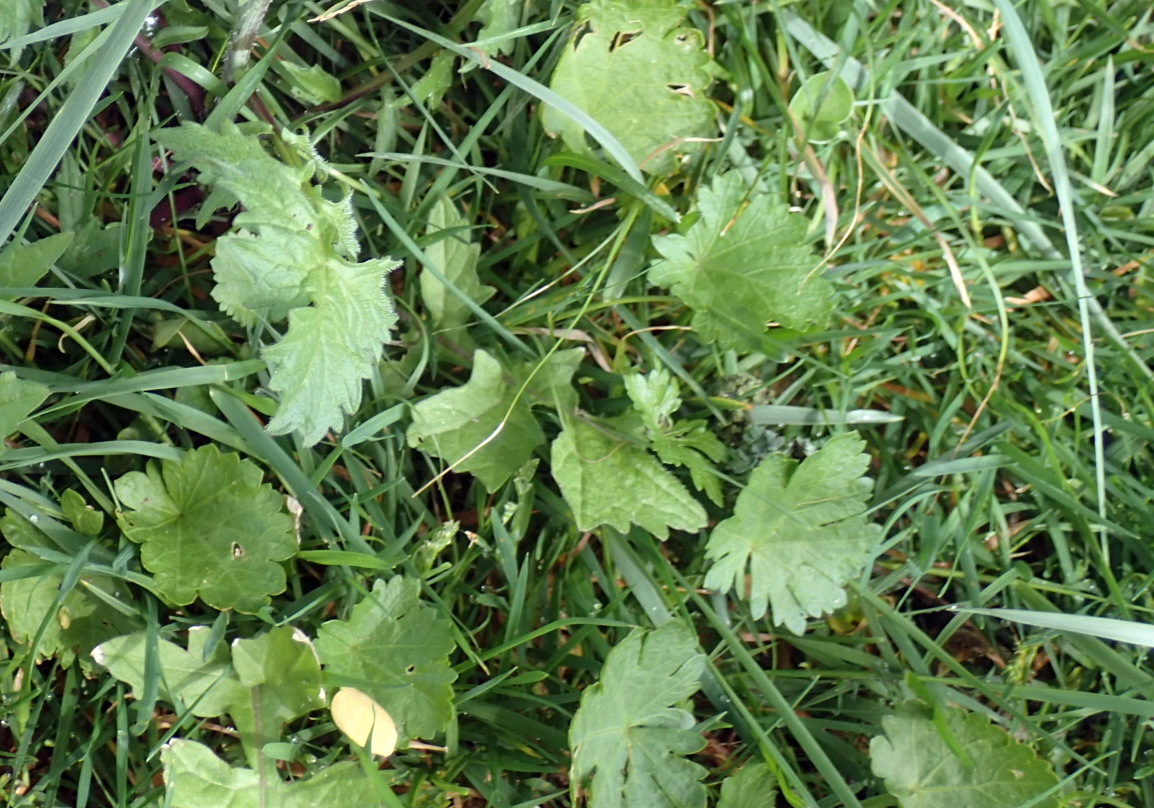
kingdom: Plantae
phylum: Tracheophyta
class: Magnoliopsida
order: Malvales
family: Malvaceae
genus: Modiola
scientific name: Modiola caroliniana
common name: Carolina bristlemallow
